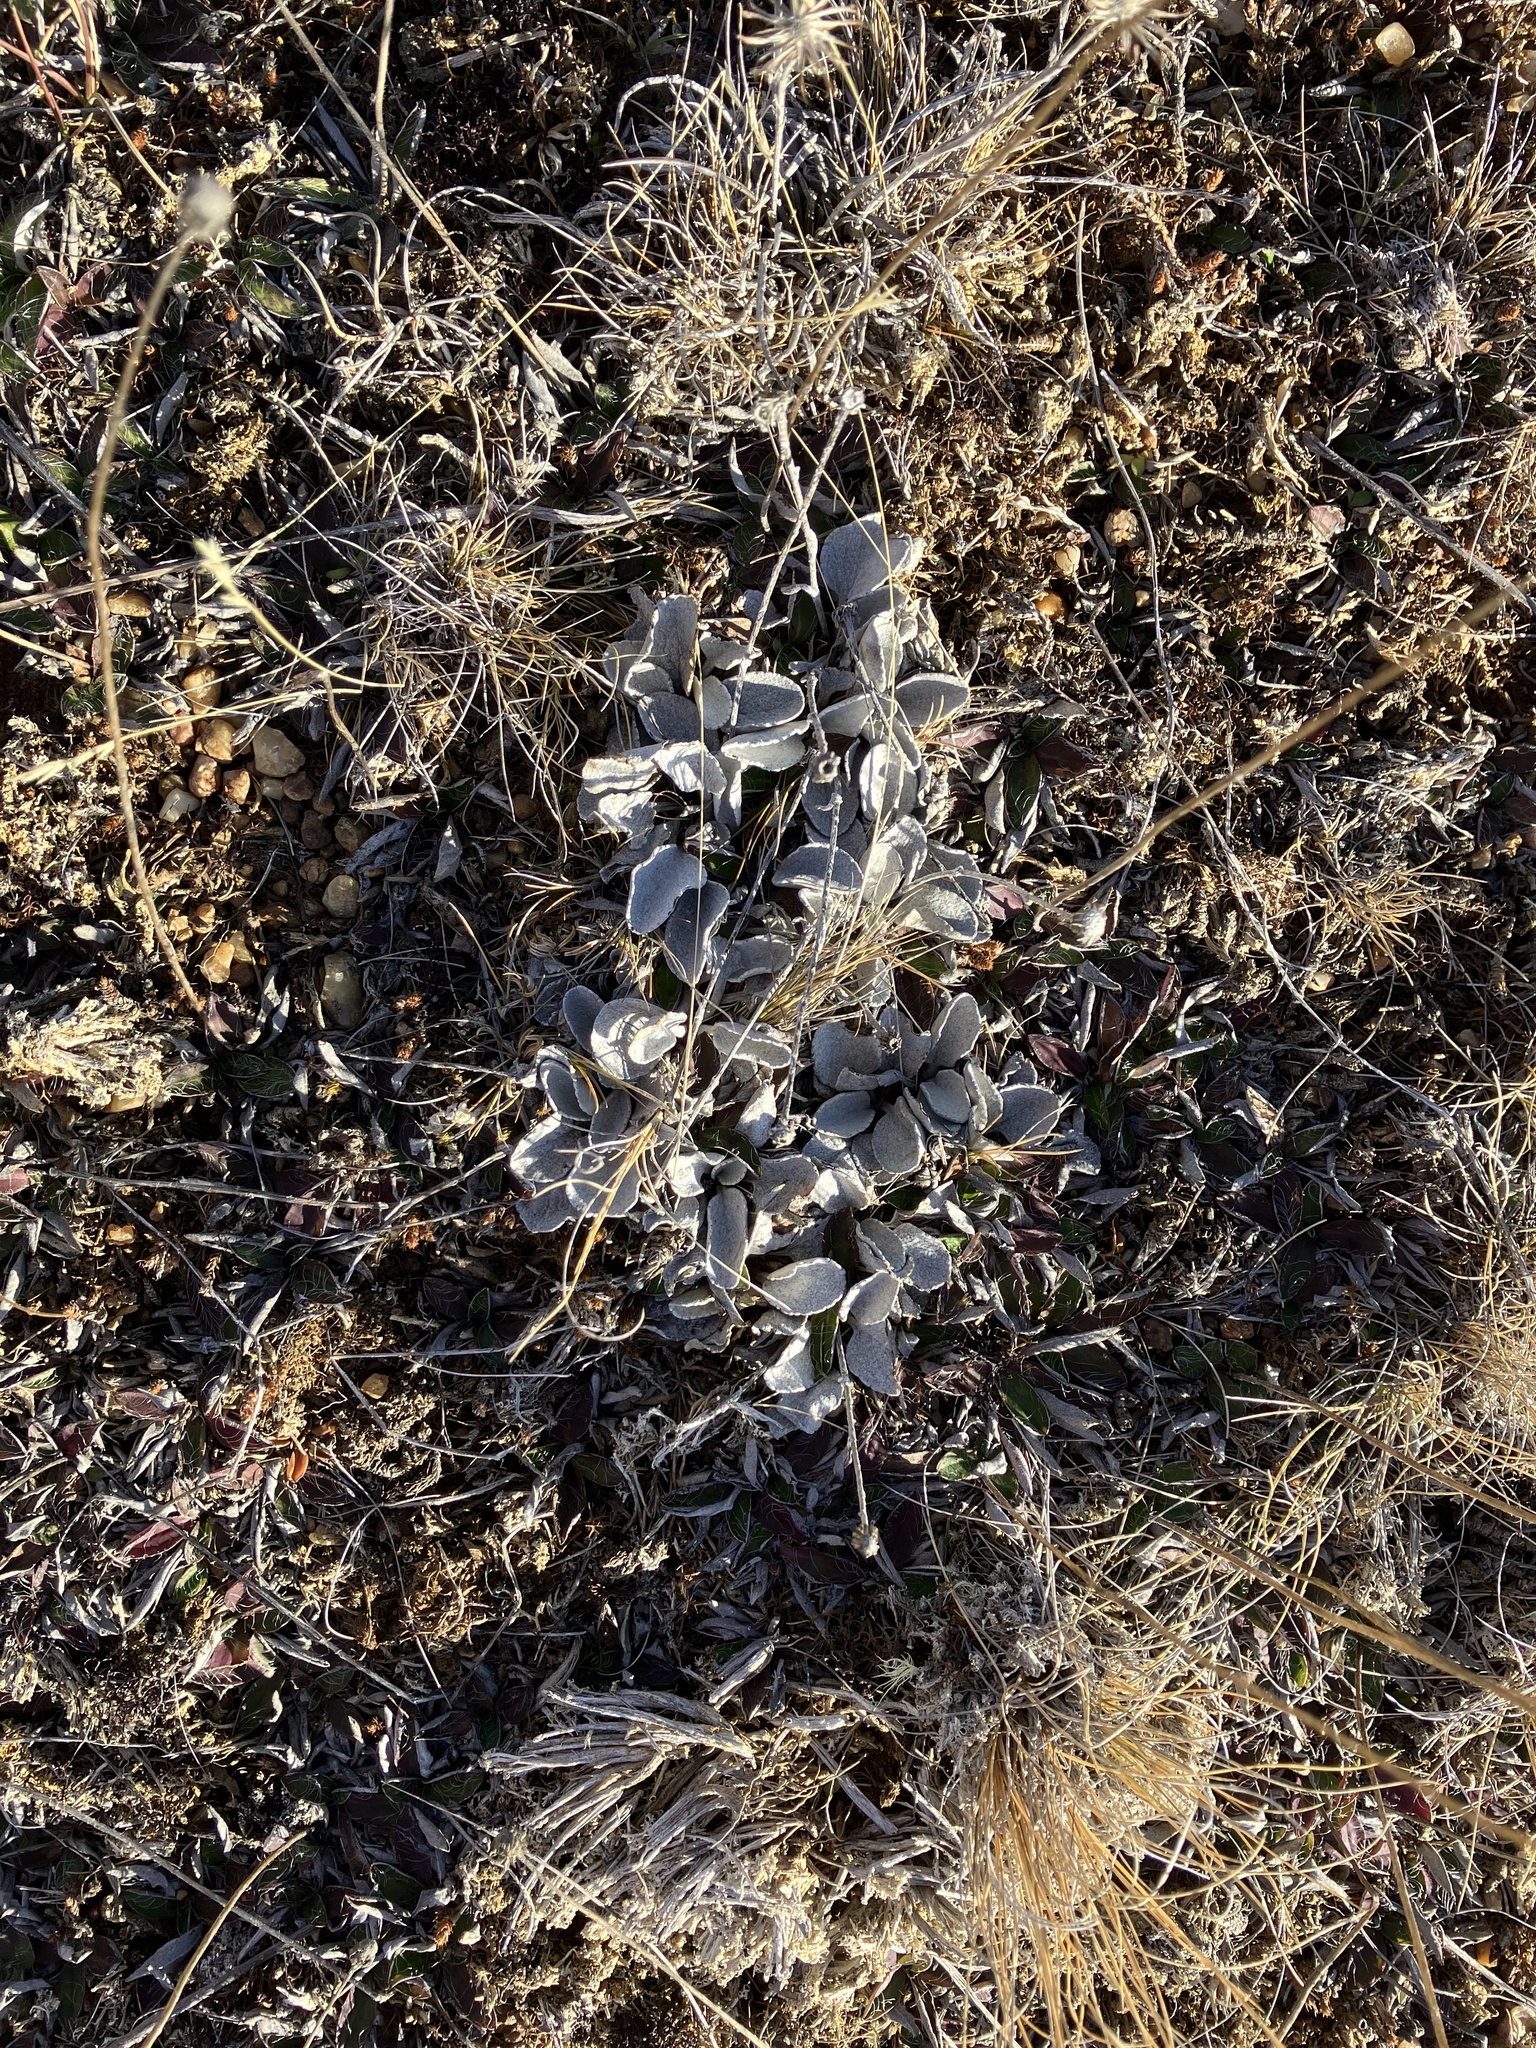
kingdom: Plantae
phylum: Tracheophyta
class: Magnoliopsida
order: Asterales
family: Asteraceae
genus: Brachyglottis
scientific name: Brachyglottis haastii
